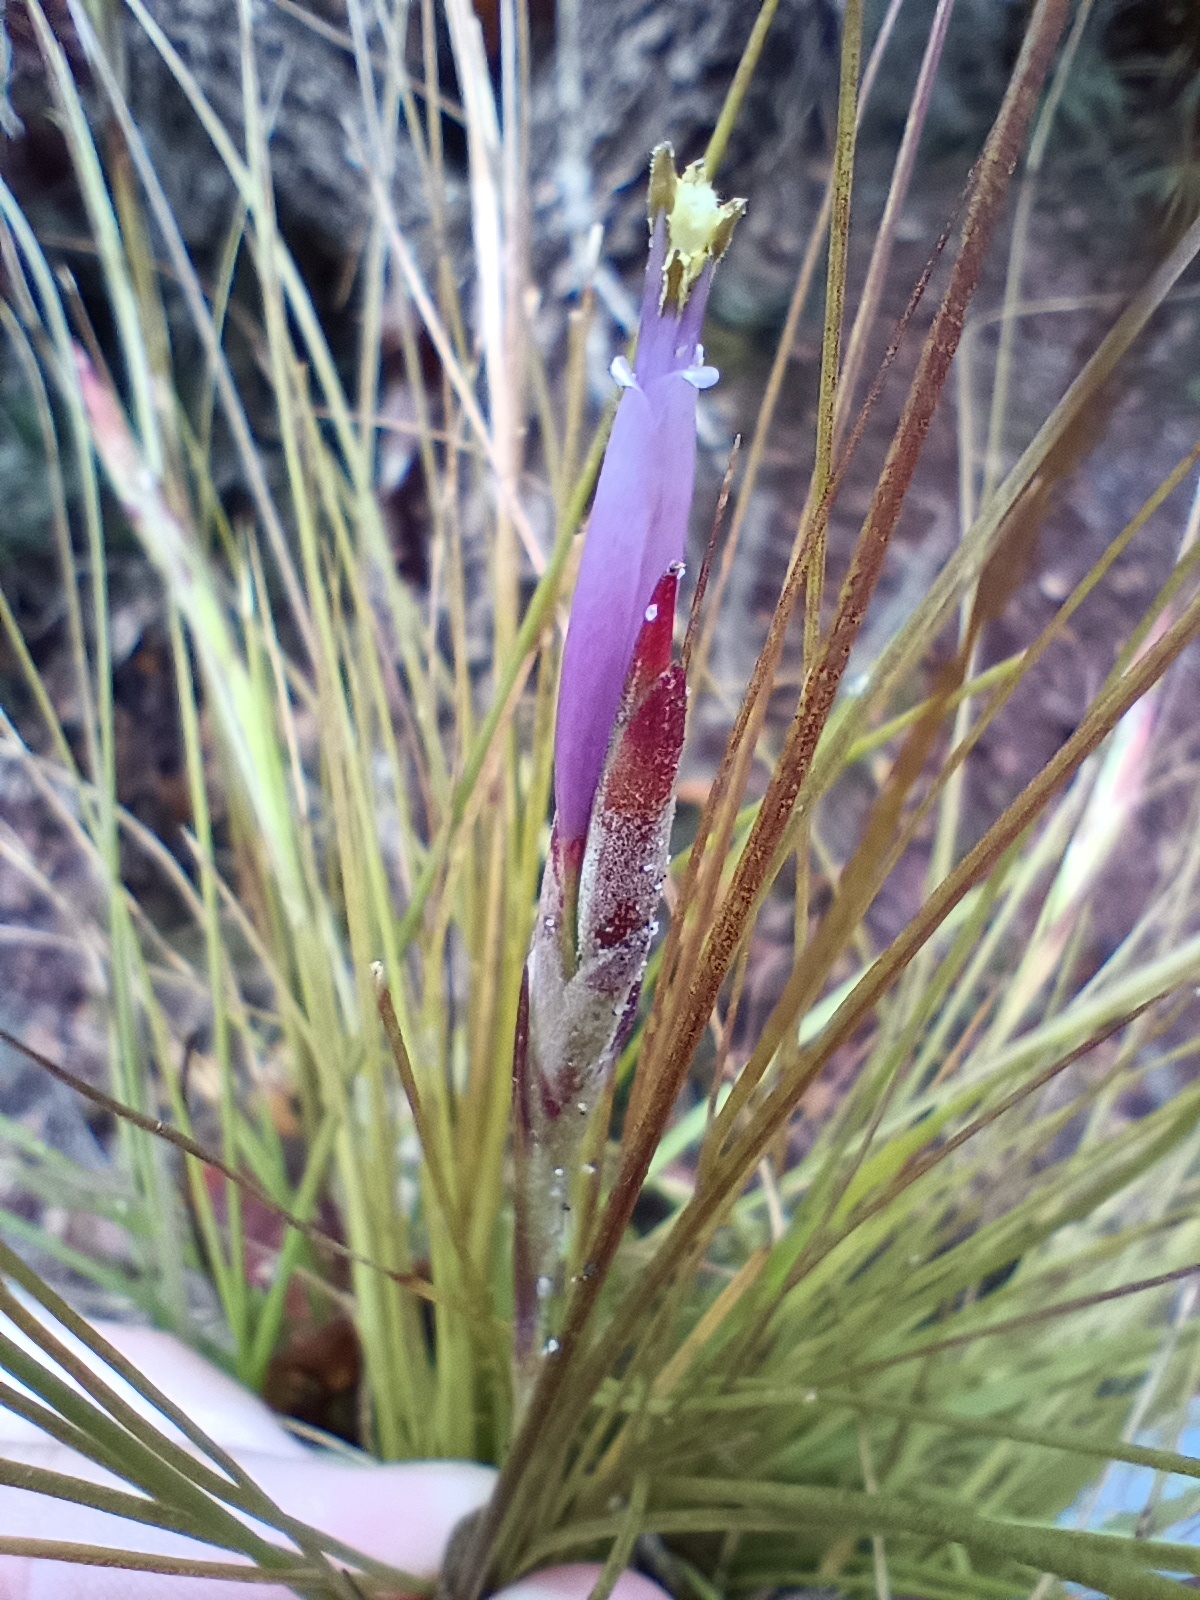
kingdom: Plantae
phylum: Tracheophyta
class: Liliopsida
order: Poales
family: Bromeliaceae
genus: Tillandsia
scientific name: Tillandsia setacea
